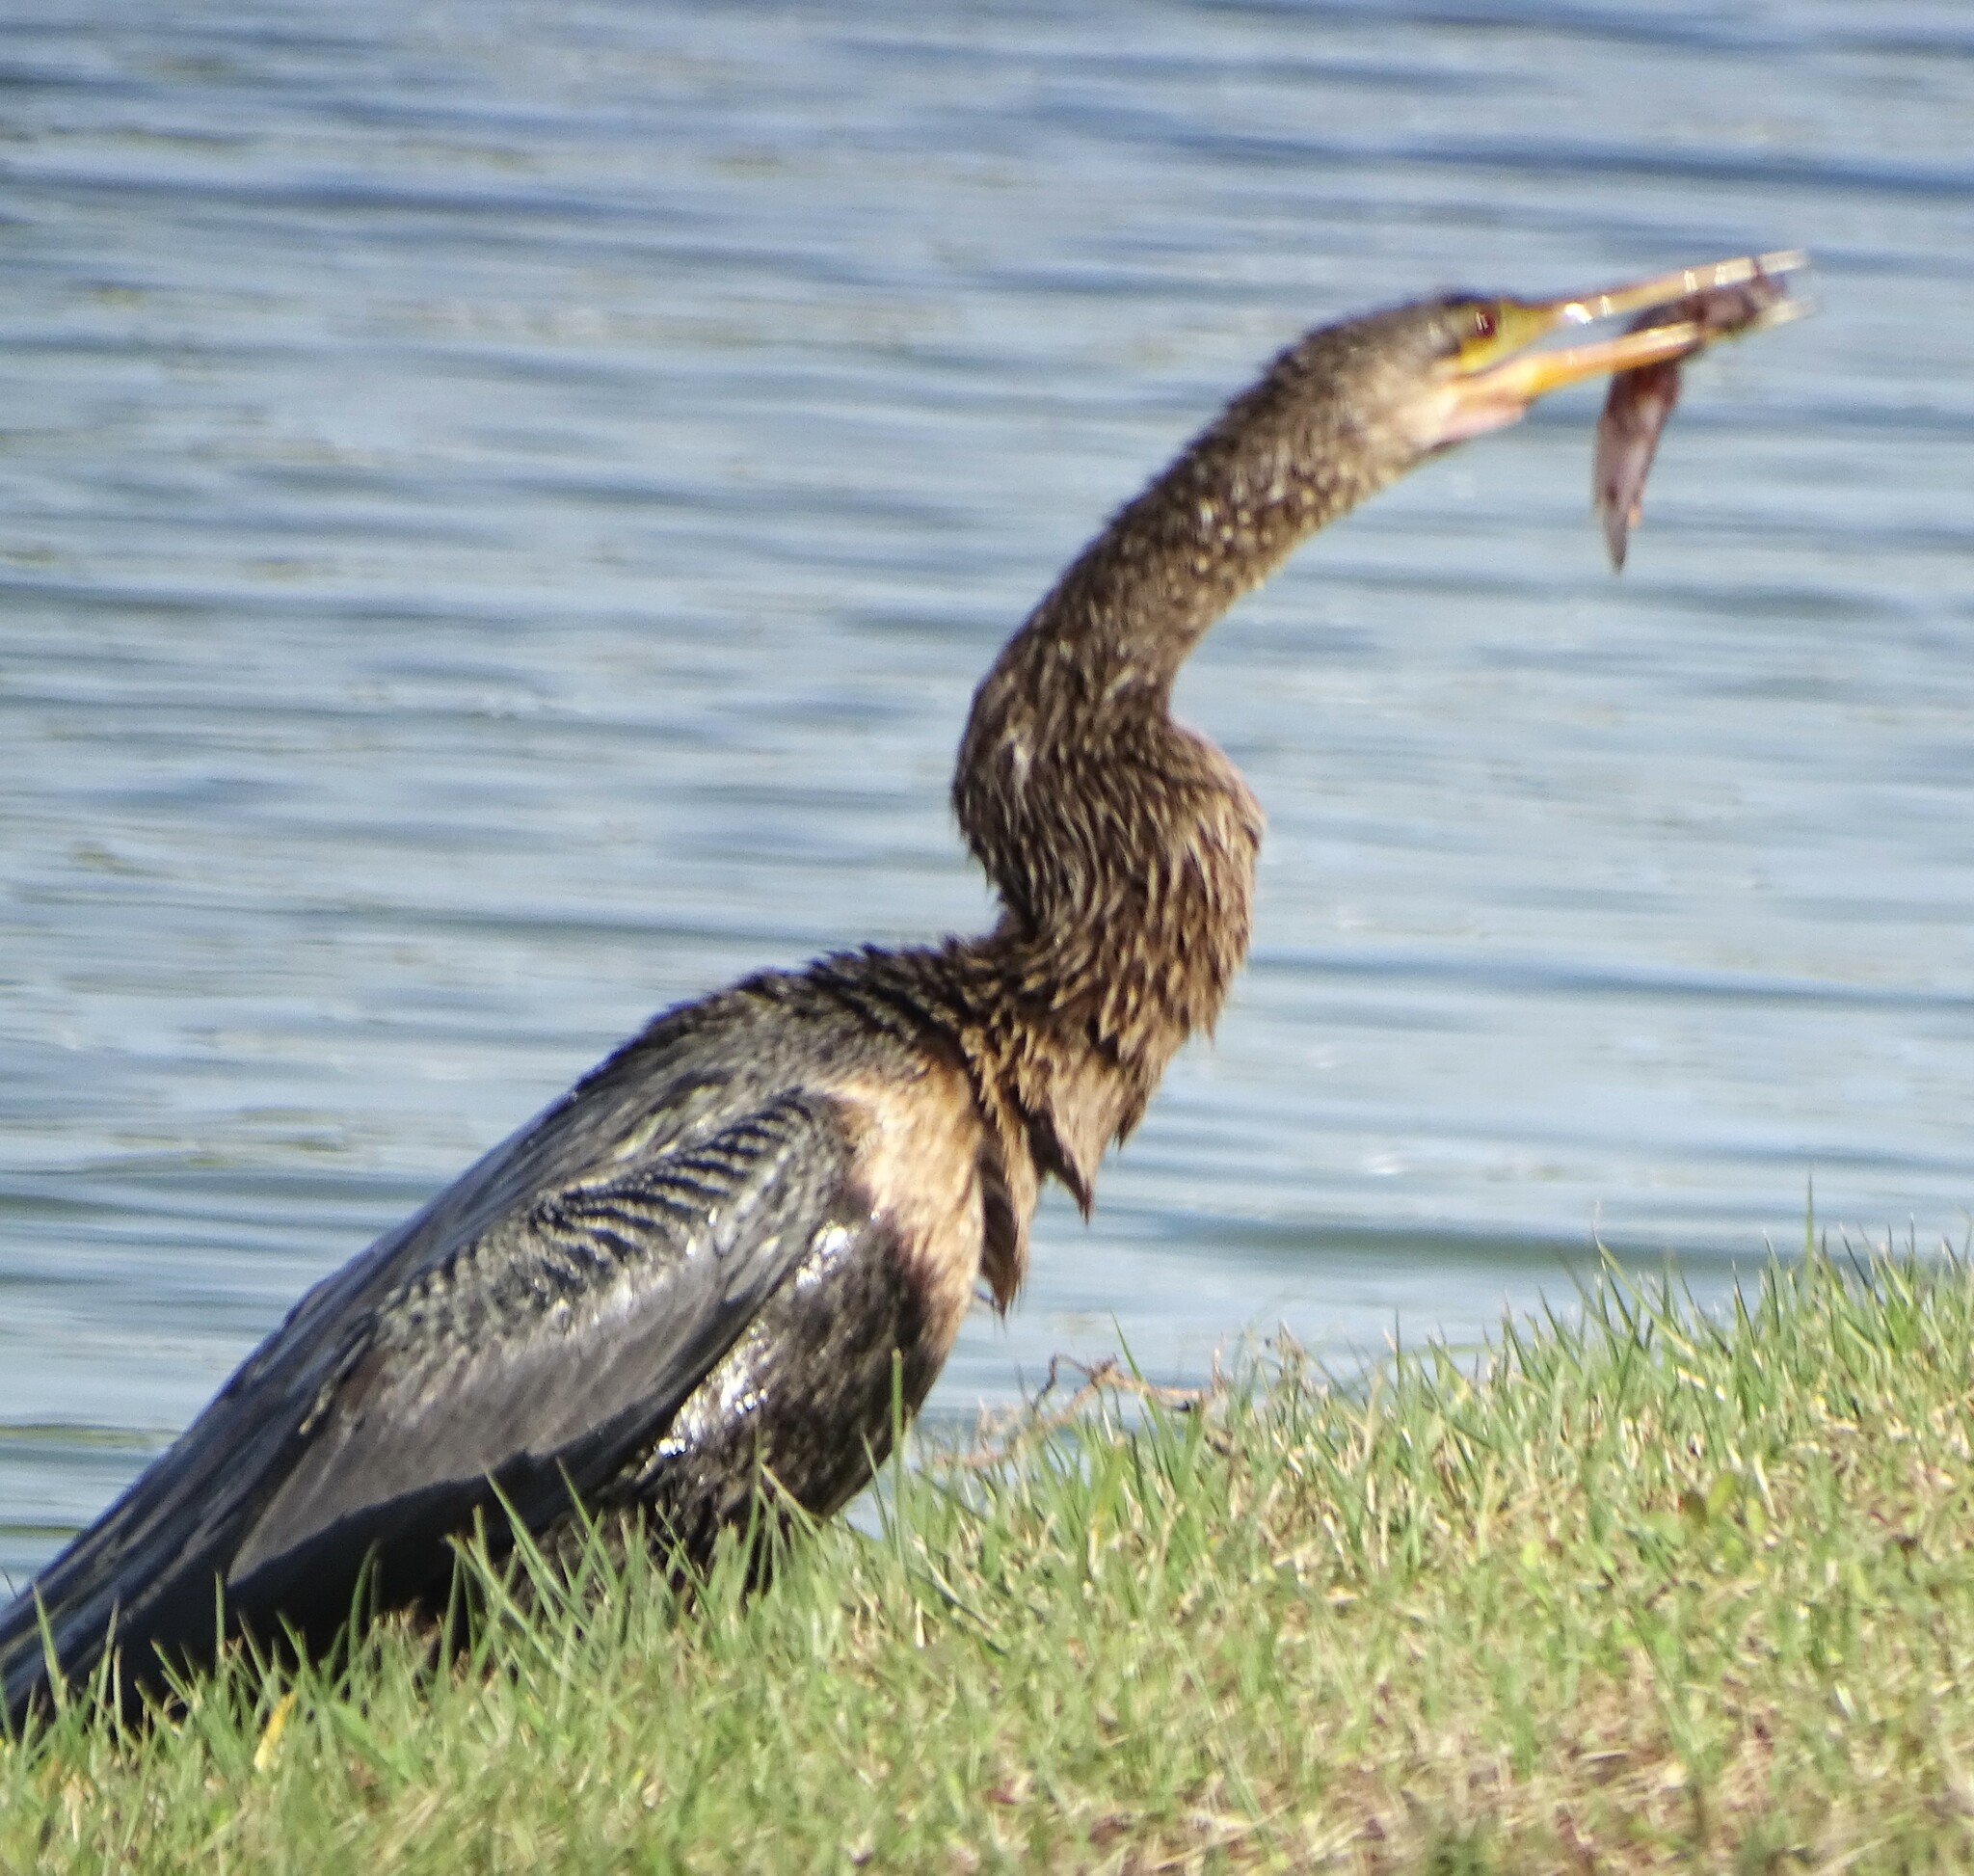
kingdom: Animalia
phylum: Chordata
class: Aves
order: Suliformes
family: Anhingidae
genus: Anhinga
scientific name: Anhinga anhinga
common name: Anhinga
